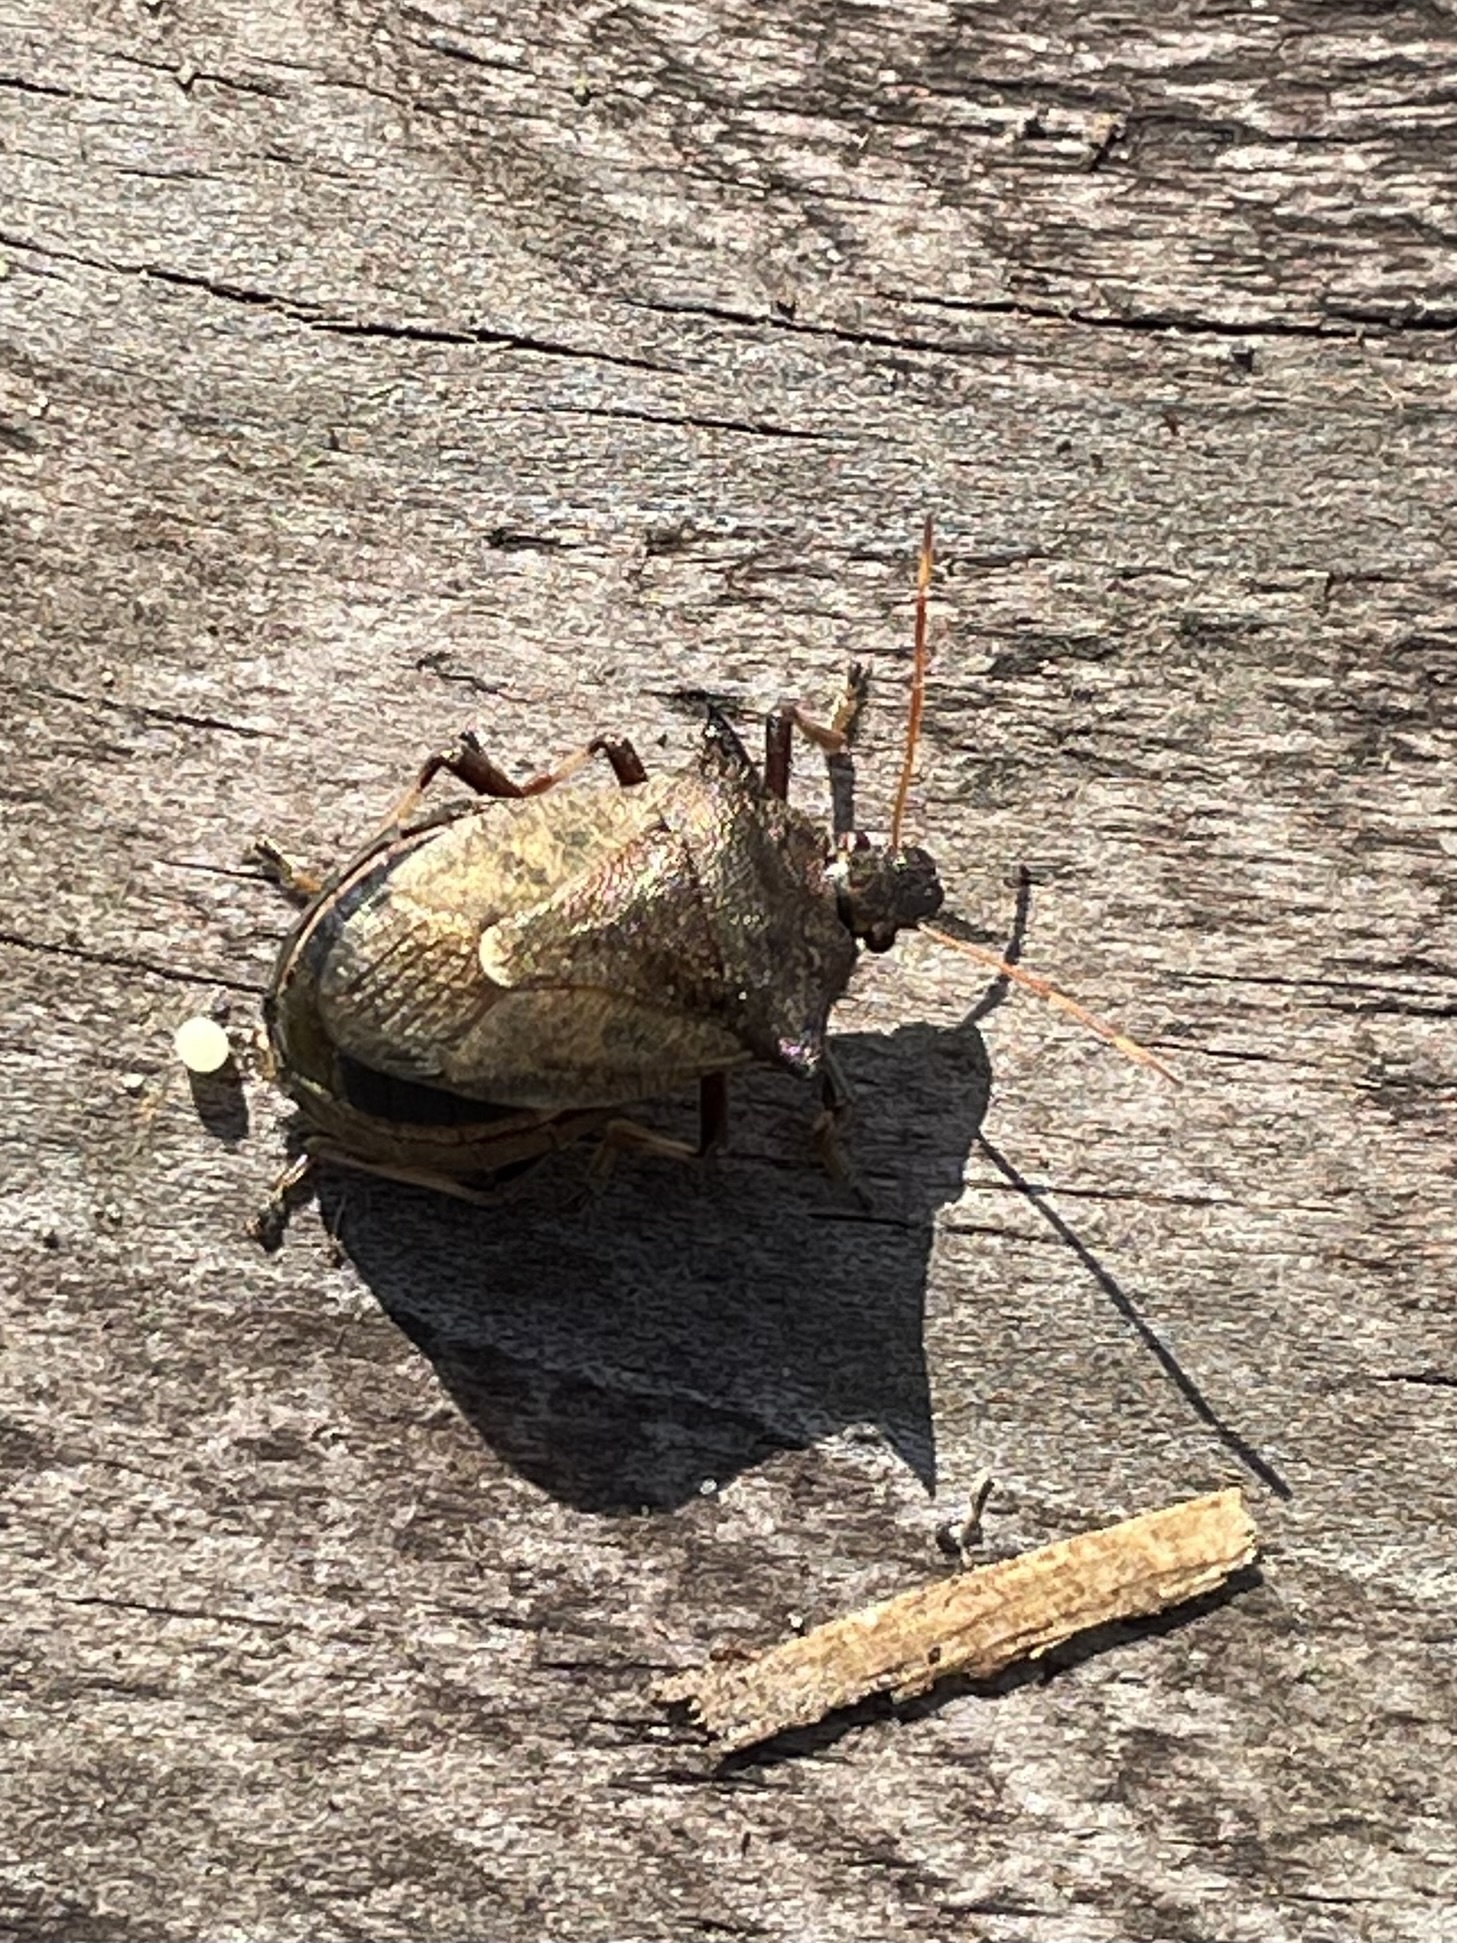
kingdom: Animalia
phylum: Arthropoda
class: Insecta
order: Hemiptera
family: Pentatomidae
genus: Picromerus
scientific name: Picromerus bidens
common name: Spiked shieldbug
